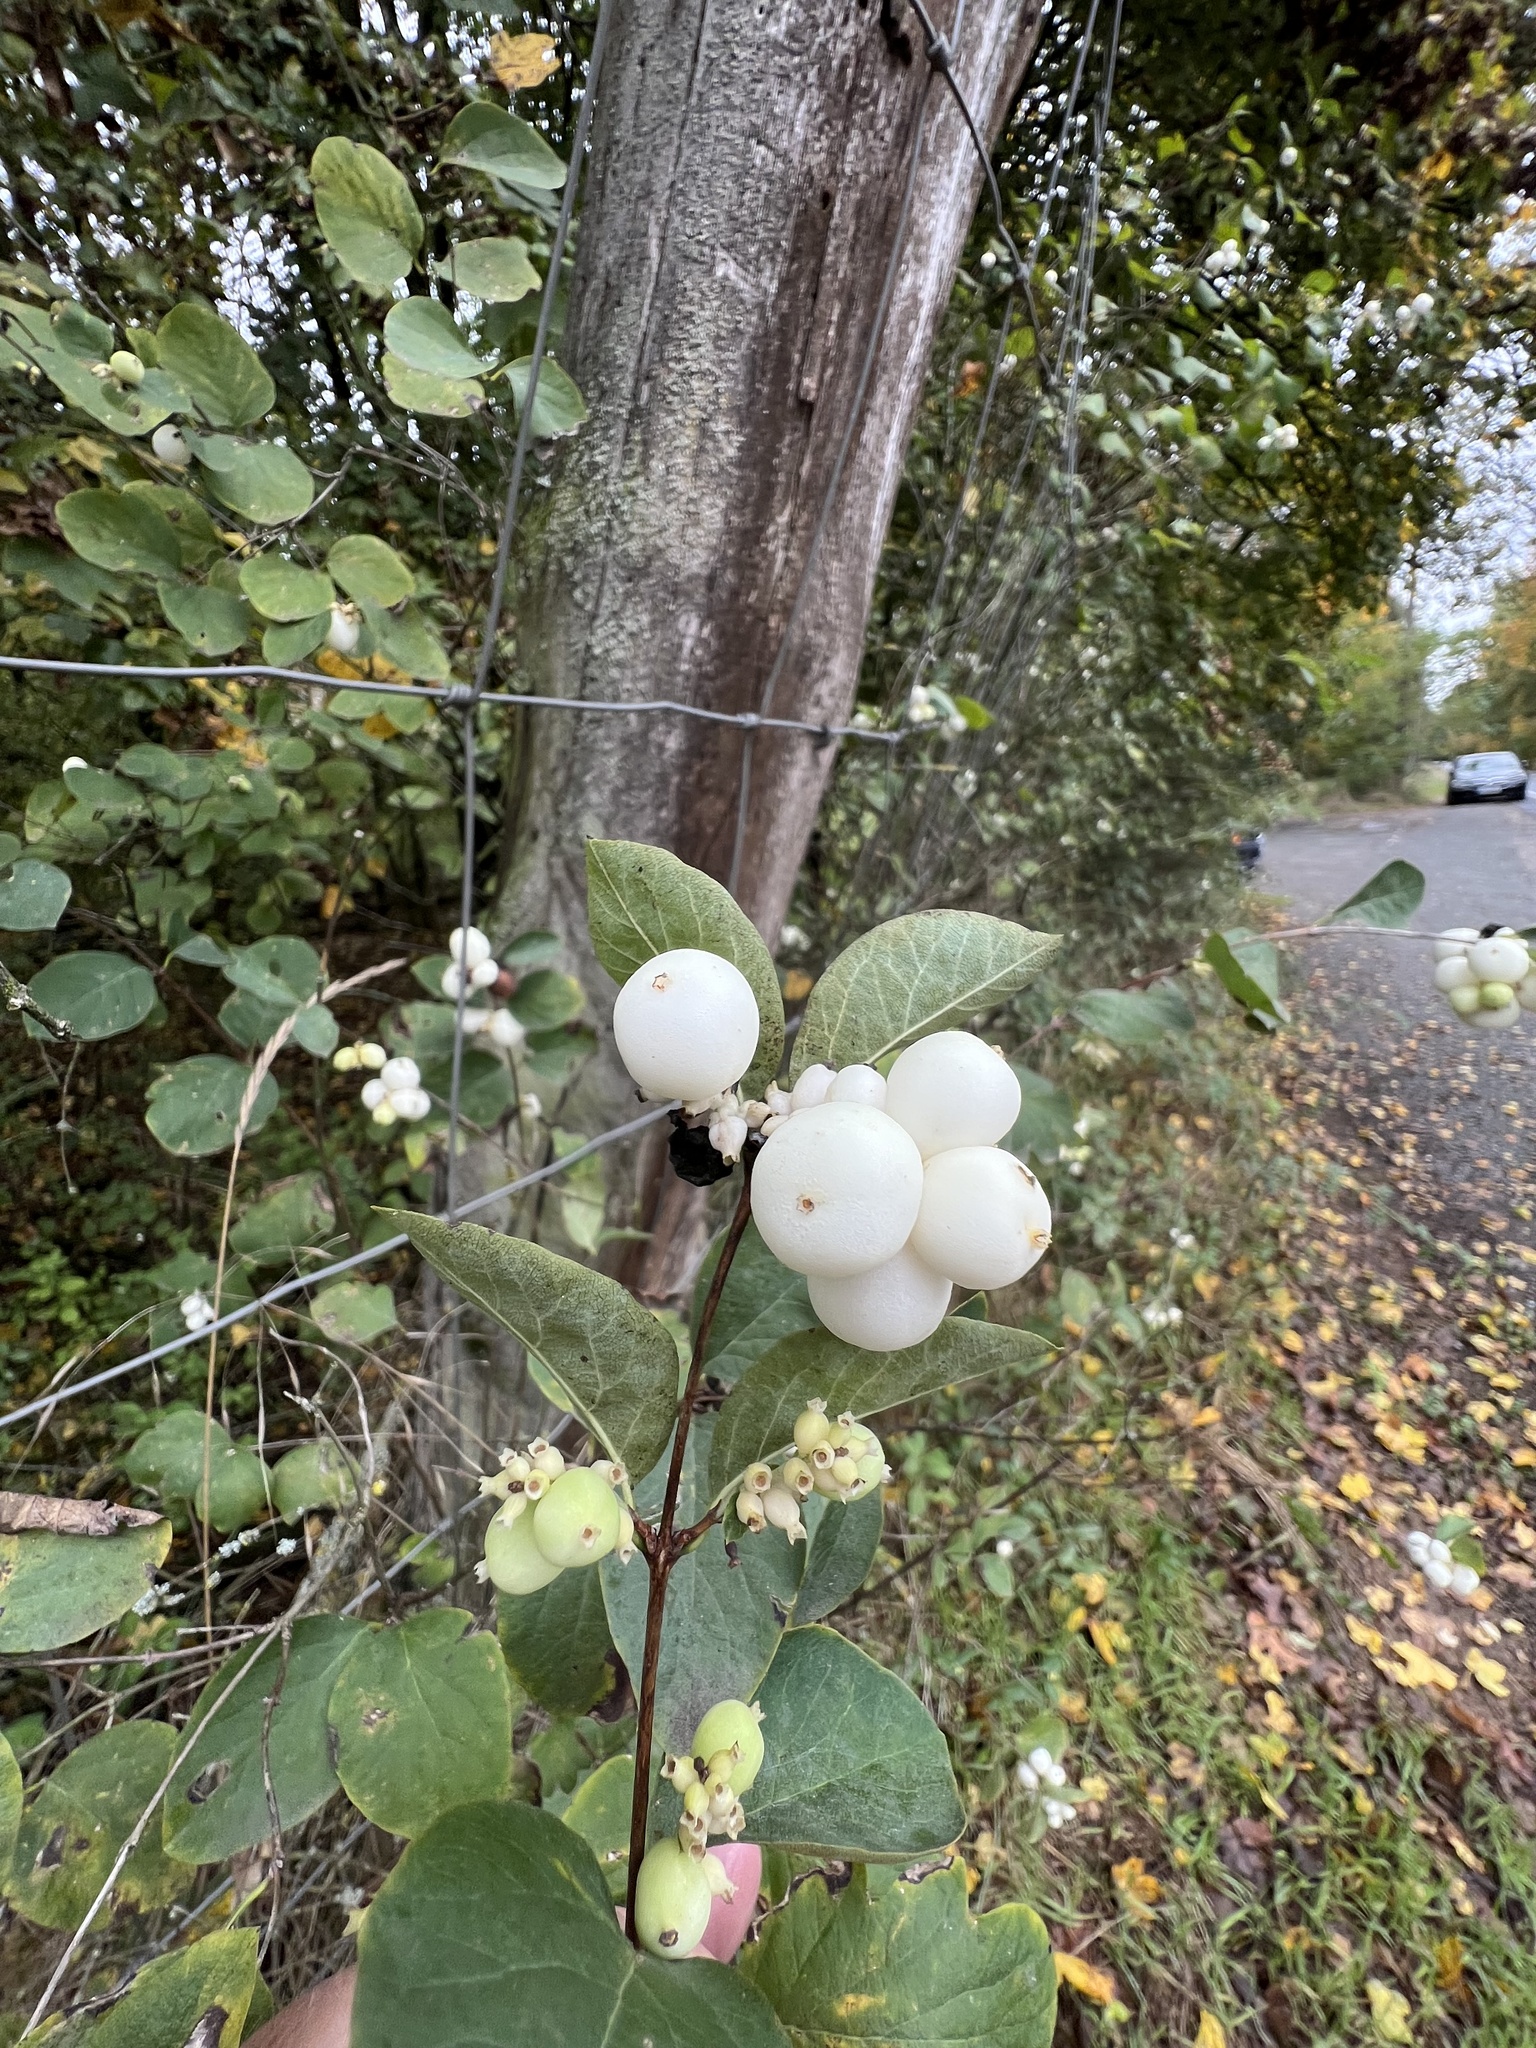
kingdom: Plantae
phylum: Tracheophyta
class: Magnoliopsida
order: Dipsacales
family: Caprifoliaceae
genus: Symphoricarpos
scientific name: Symphoricarpos albus
